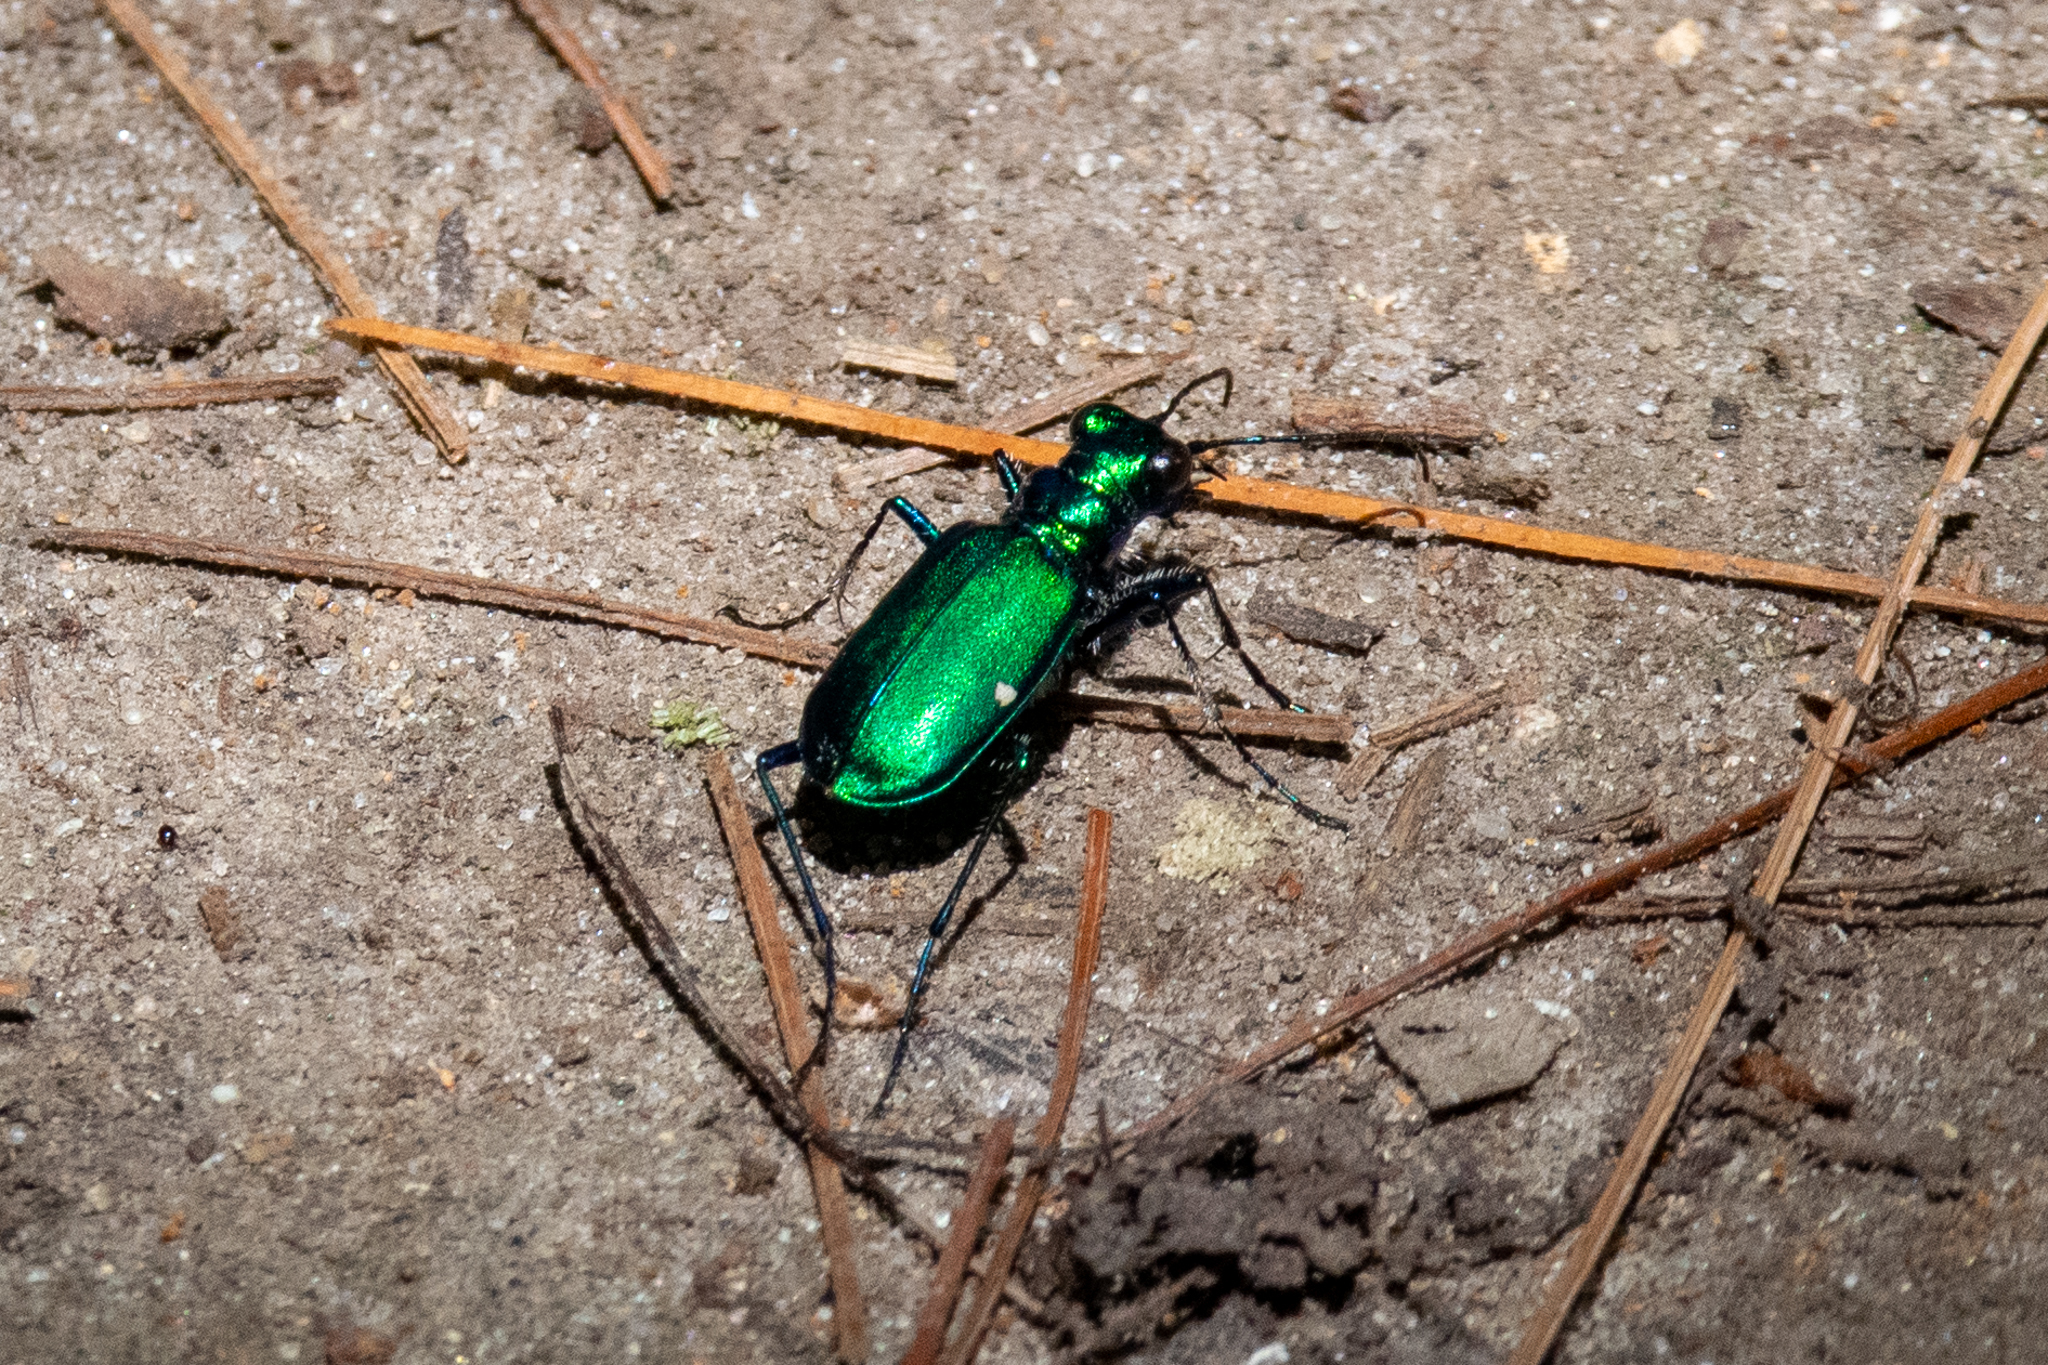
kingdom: Animalia
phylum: Arthropoda
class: Insecta
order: Coleoptera
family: Carabidae
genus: Cicindela
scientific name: Cicindela sexguttata
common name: Six-spotted tiger beetle
